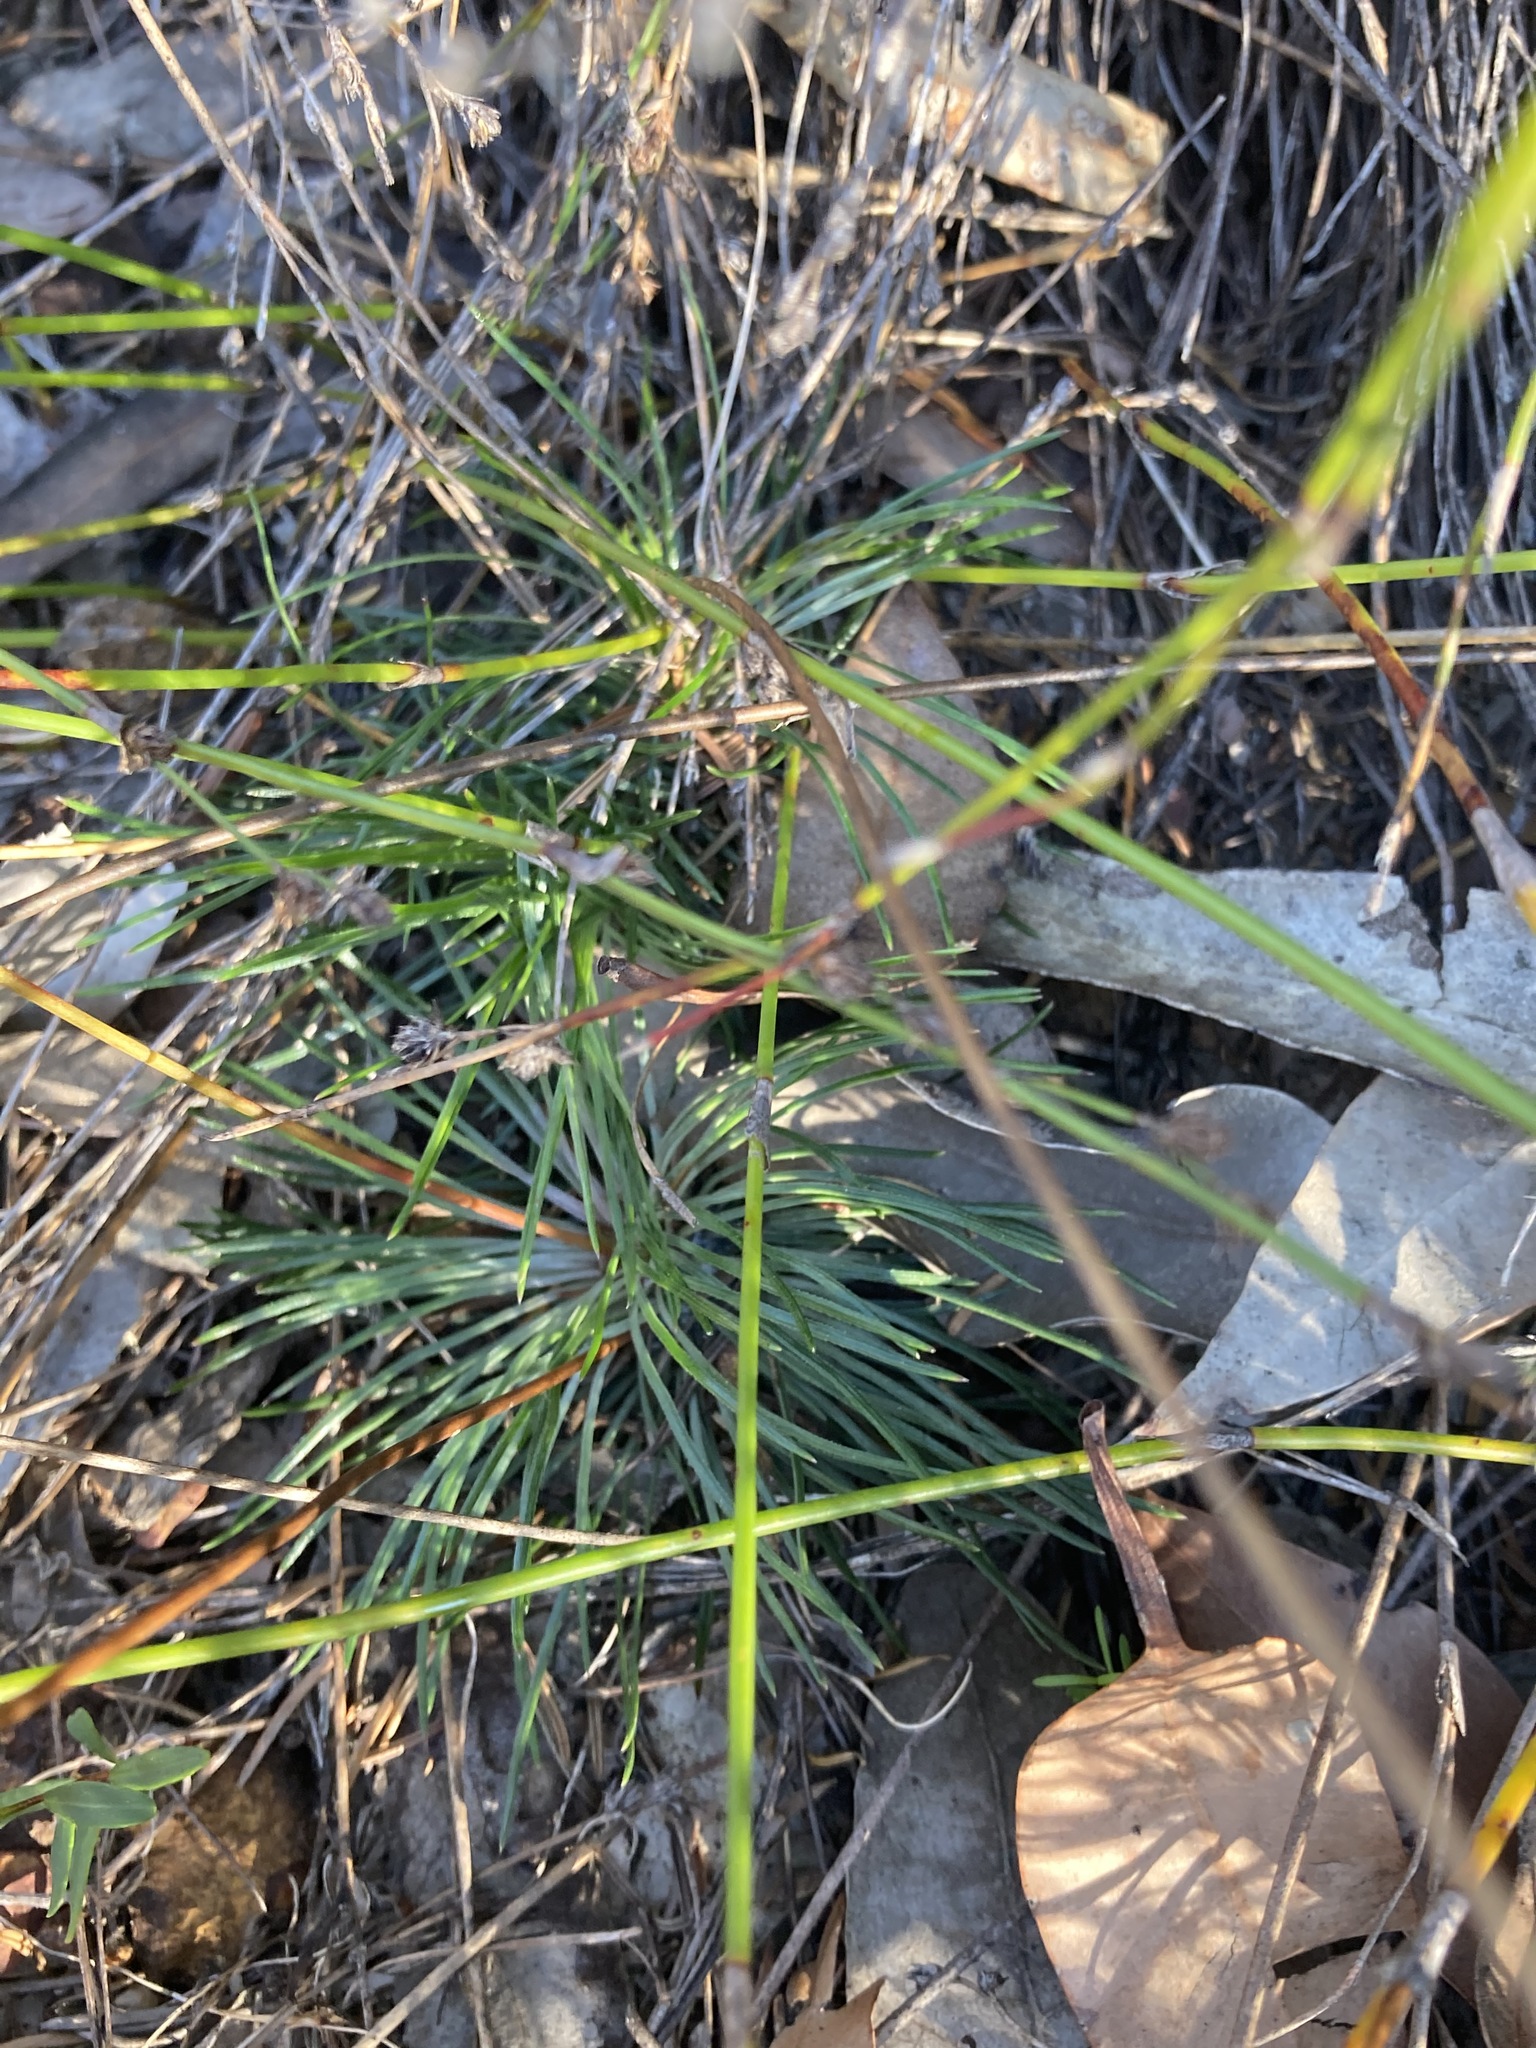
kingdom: Plantae
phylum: Tracheophyta
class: Magnoliopsida
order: Asterales
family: Stylidiaceae
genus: Stylidium
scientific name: Stylidium lineare
